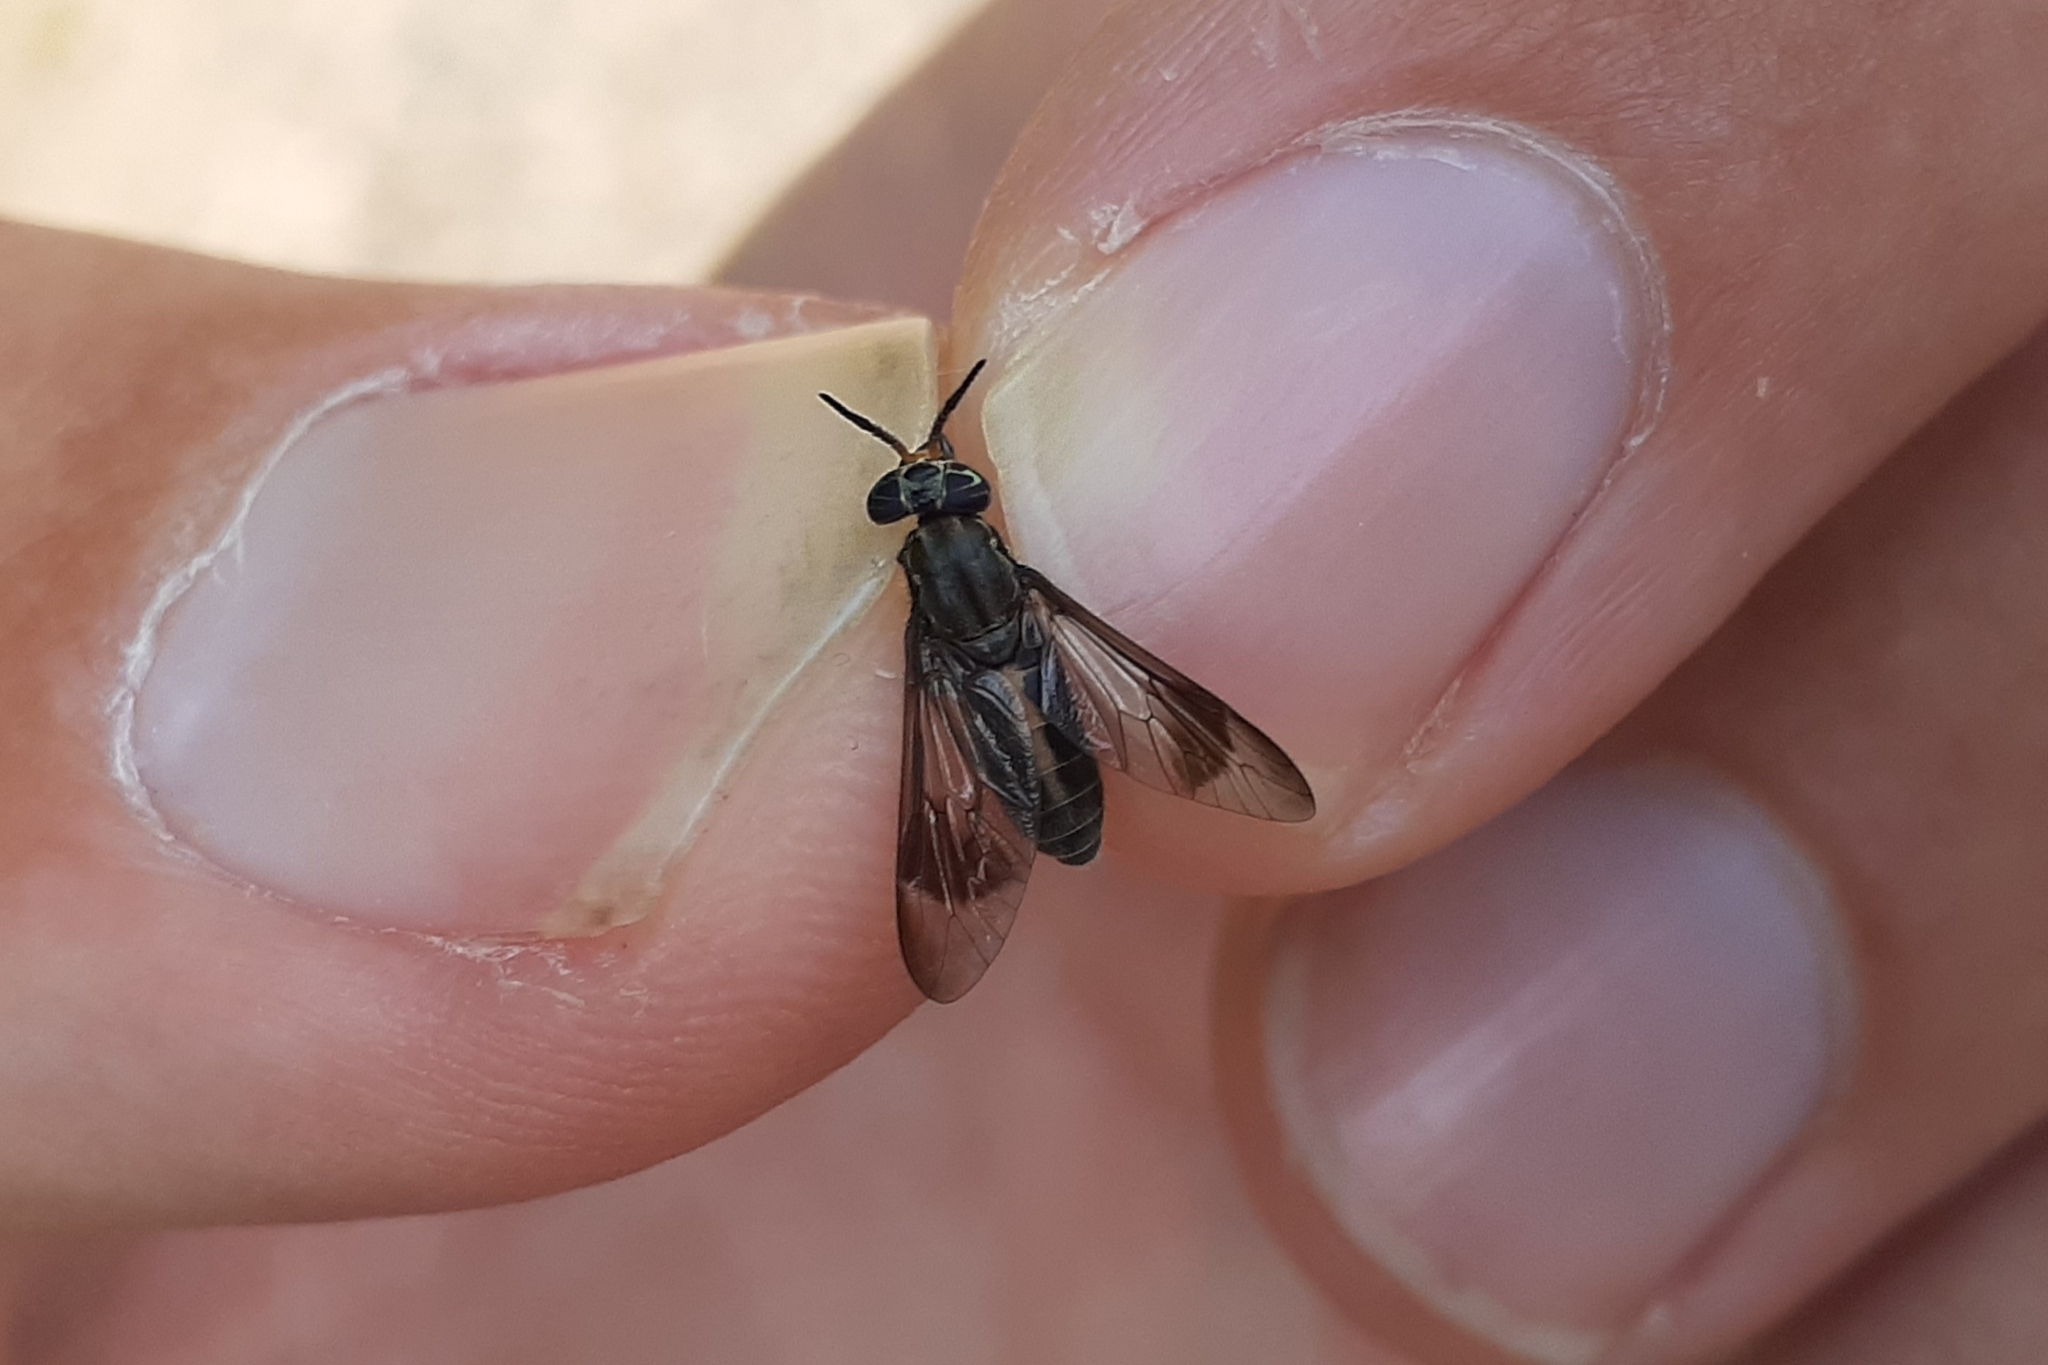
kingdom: Animalia
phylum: Arthropoda
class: Insecta
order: Diptera
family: Tabanidae
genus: Chrysops
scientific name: Chrysops univittatus
